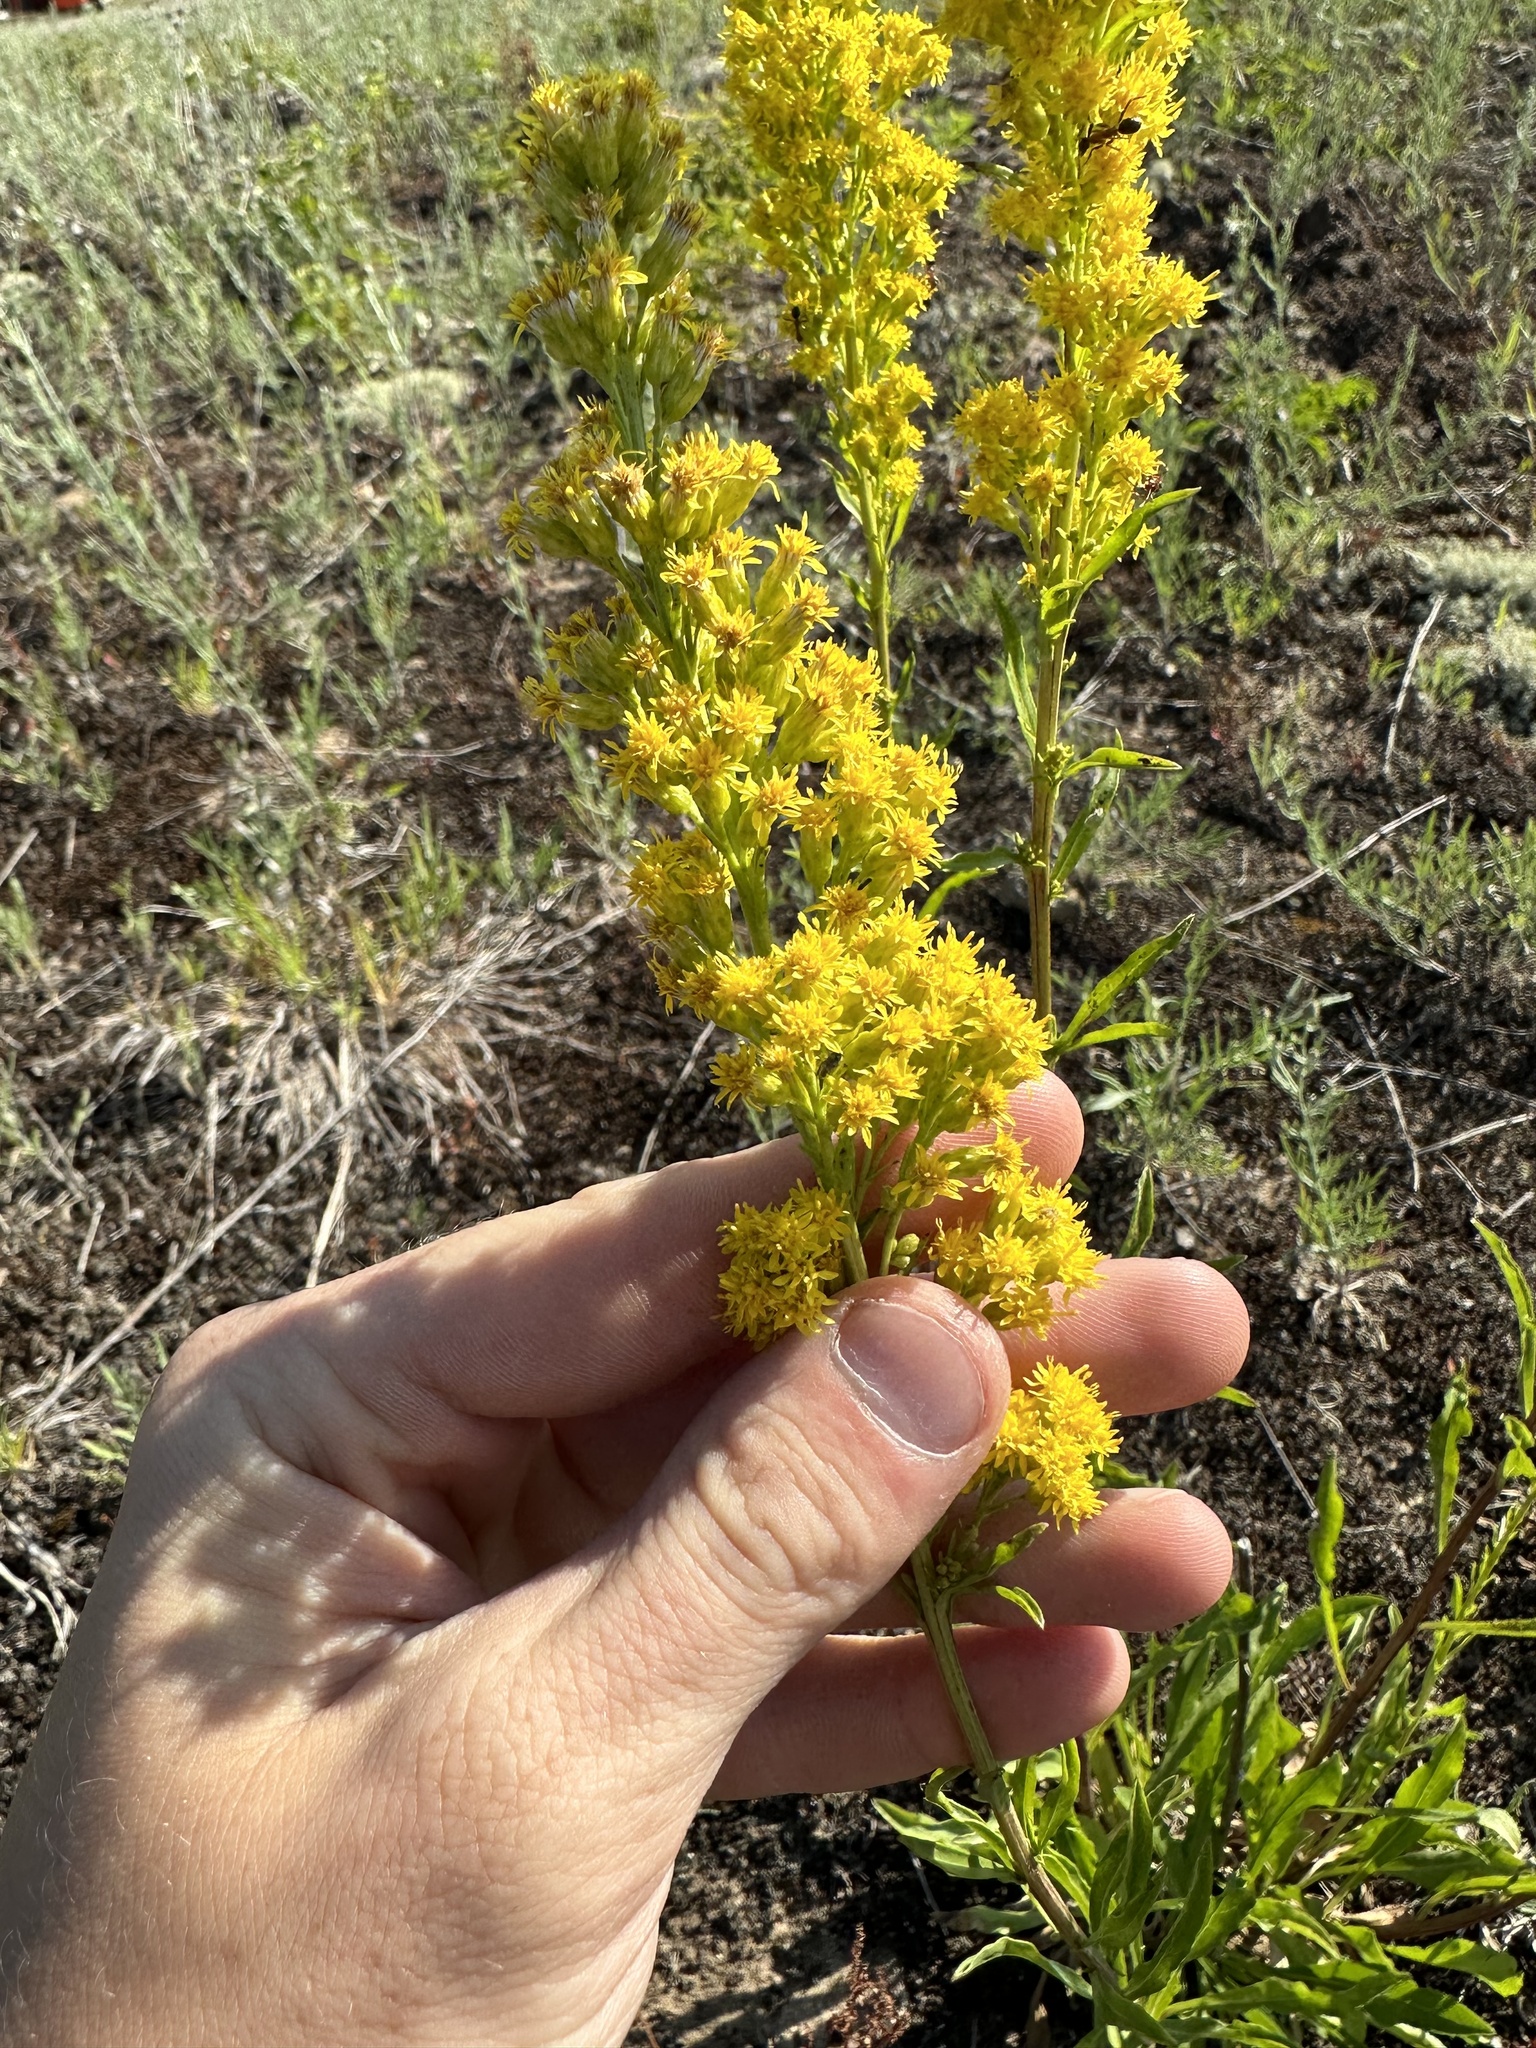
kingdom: Plantae
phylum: Tracheophyta
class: Magnoliopsida
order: Asterales
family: Asteraceae
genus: Solidago
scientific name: Solidago jejunifolia
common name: Few-leaved goldenrod
